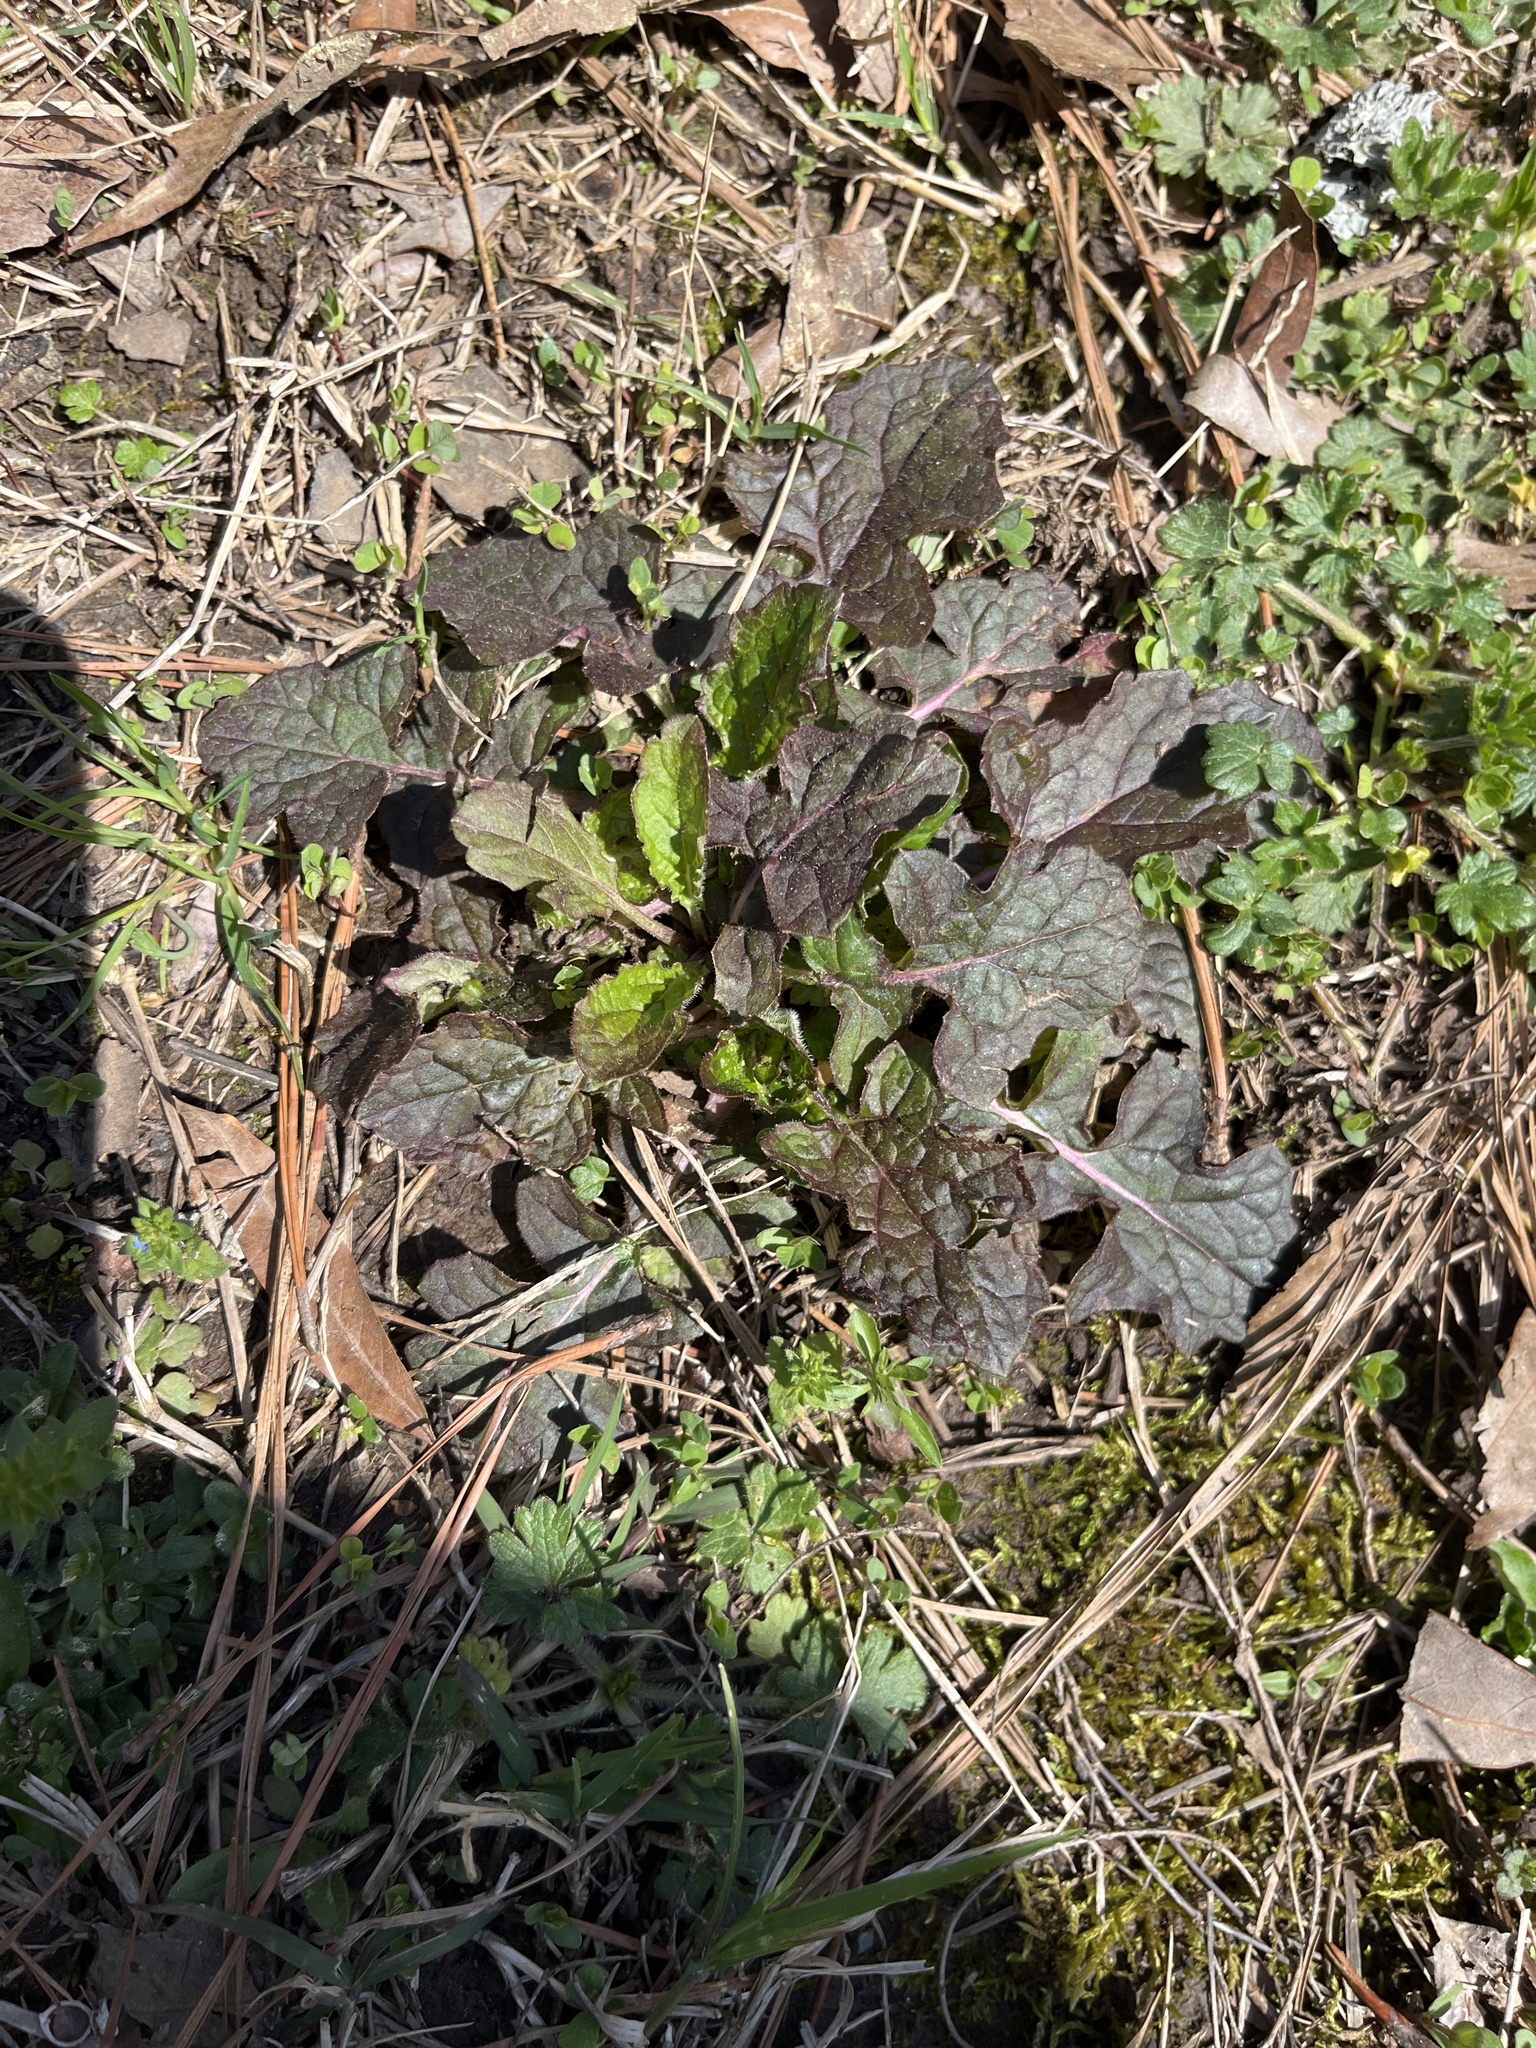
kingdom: Plantae
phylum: Tracheophyta
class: Magnoliopsida
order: Lamiales
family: Lamiaceae
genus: Salvia
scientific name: Salvia lyrata
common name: Cancerweed
